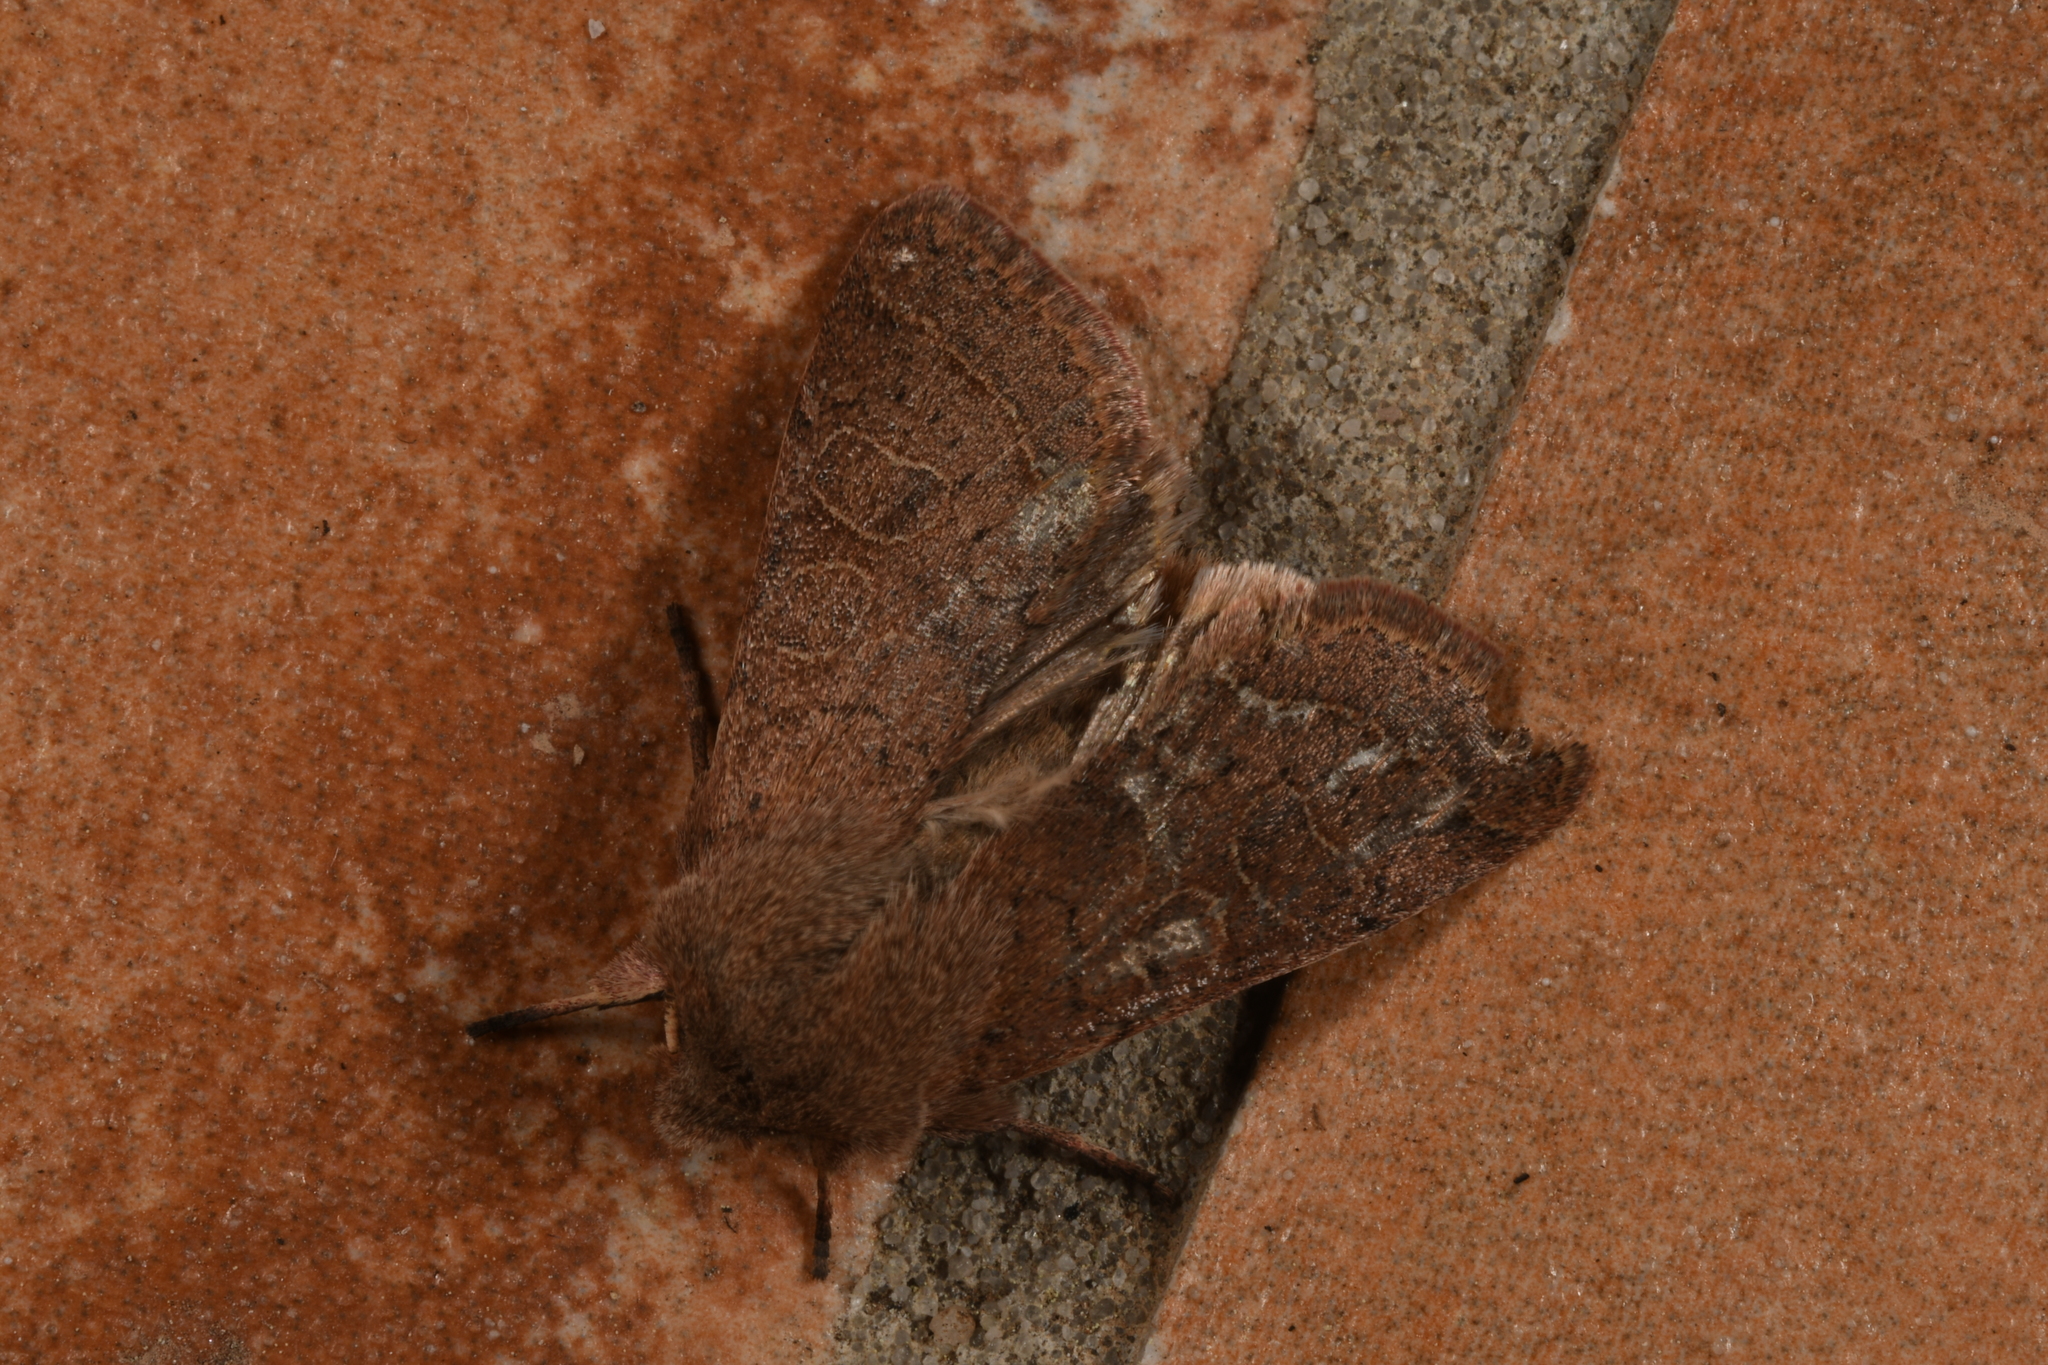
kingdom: Animalia
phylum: Arthropoda
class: Insecta
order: Lepidoptera
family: Noctuidae
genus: Orthosia
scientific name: Orthosia cerasi
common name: Common quaker
